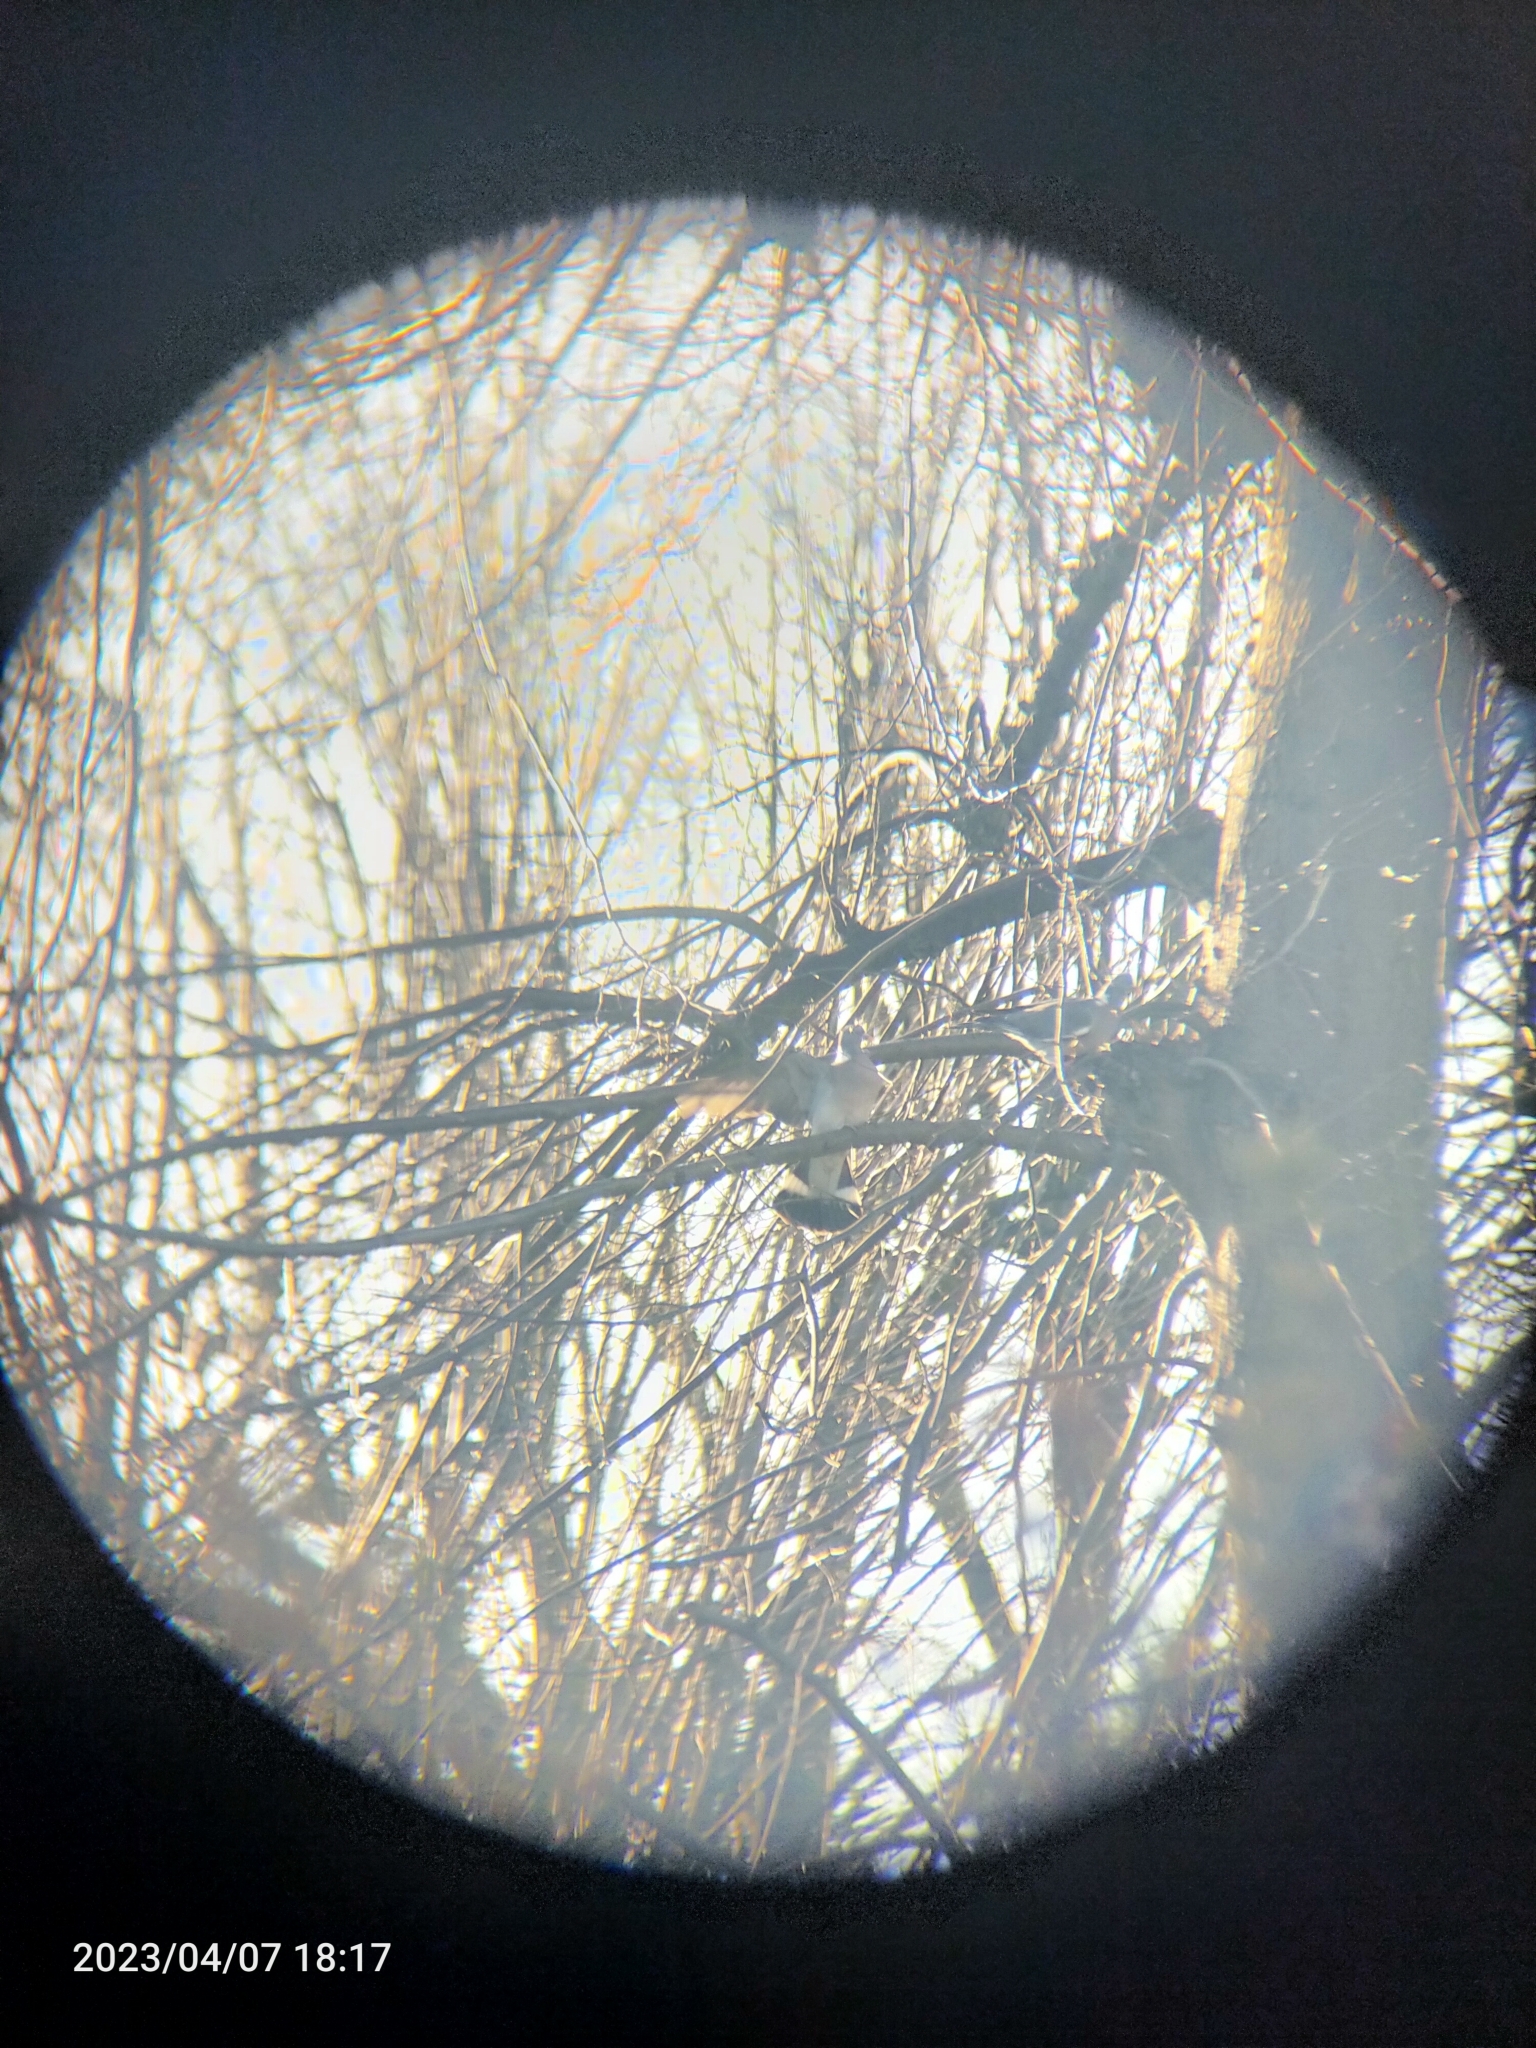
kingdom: Animalia
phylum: Chordata
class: Aves
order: Columbiformes
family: Columbidae
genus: Columba
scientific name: Columba palumbus
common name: Common wood pigeon
